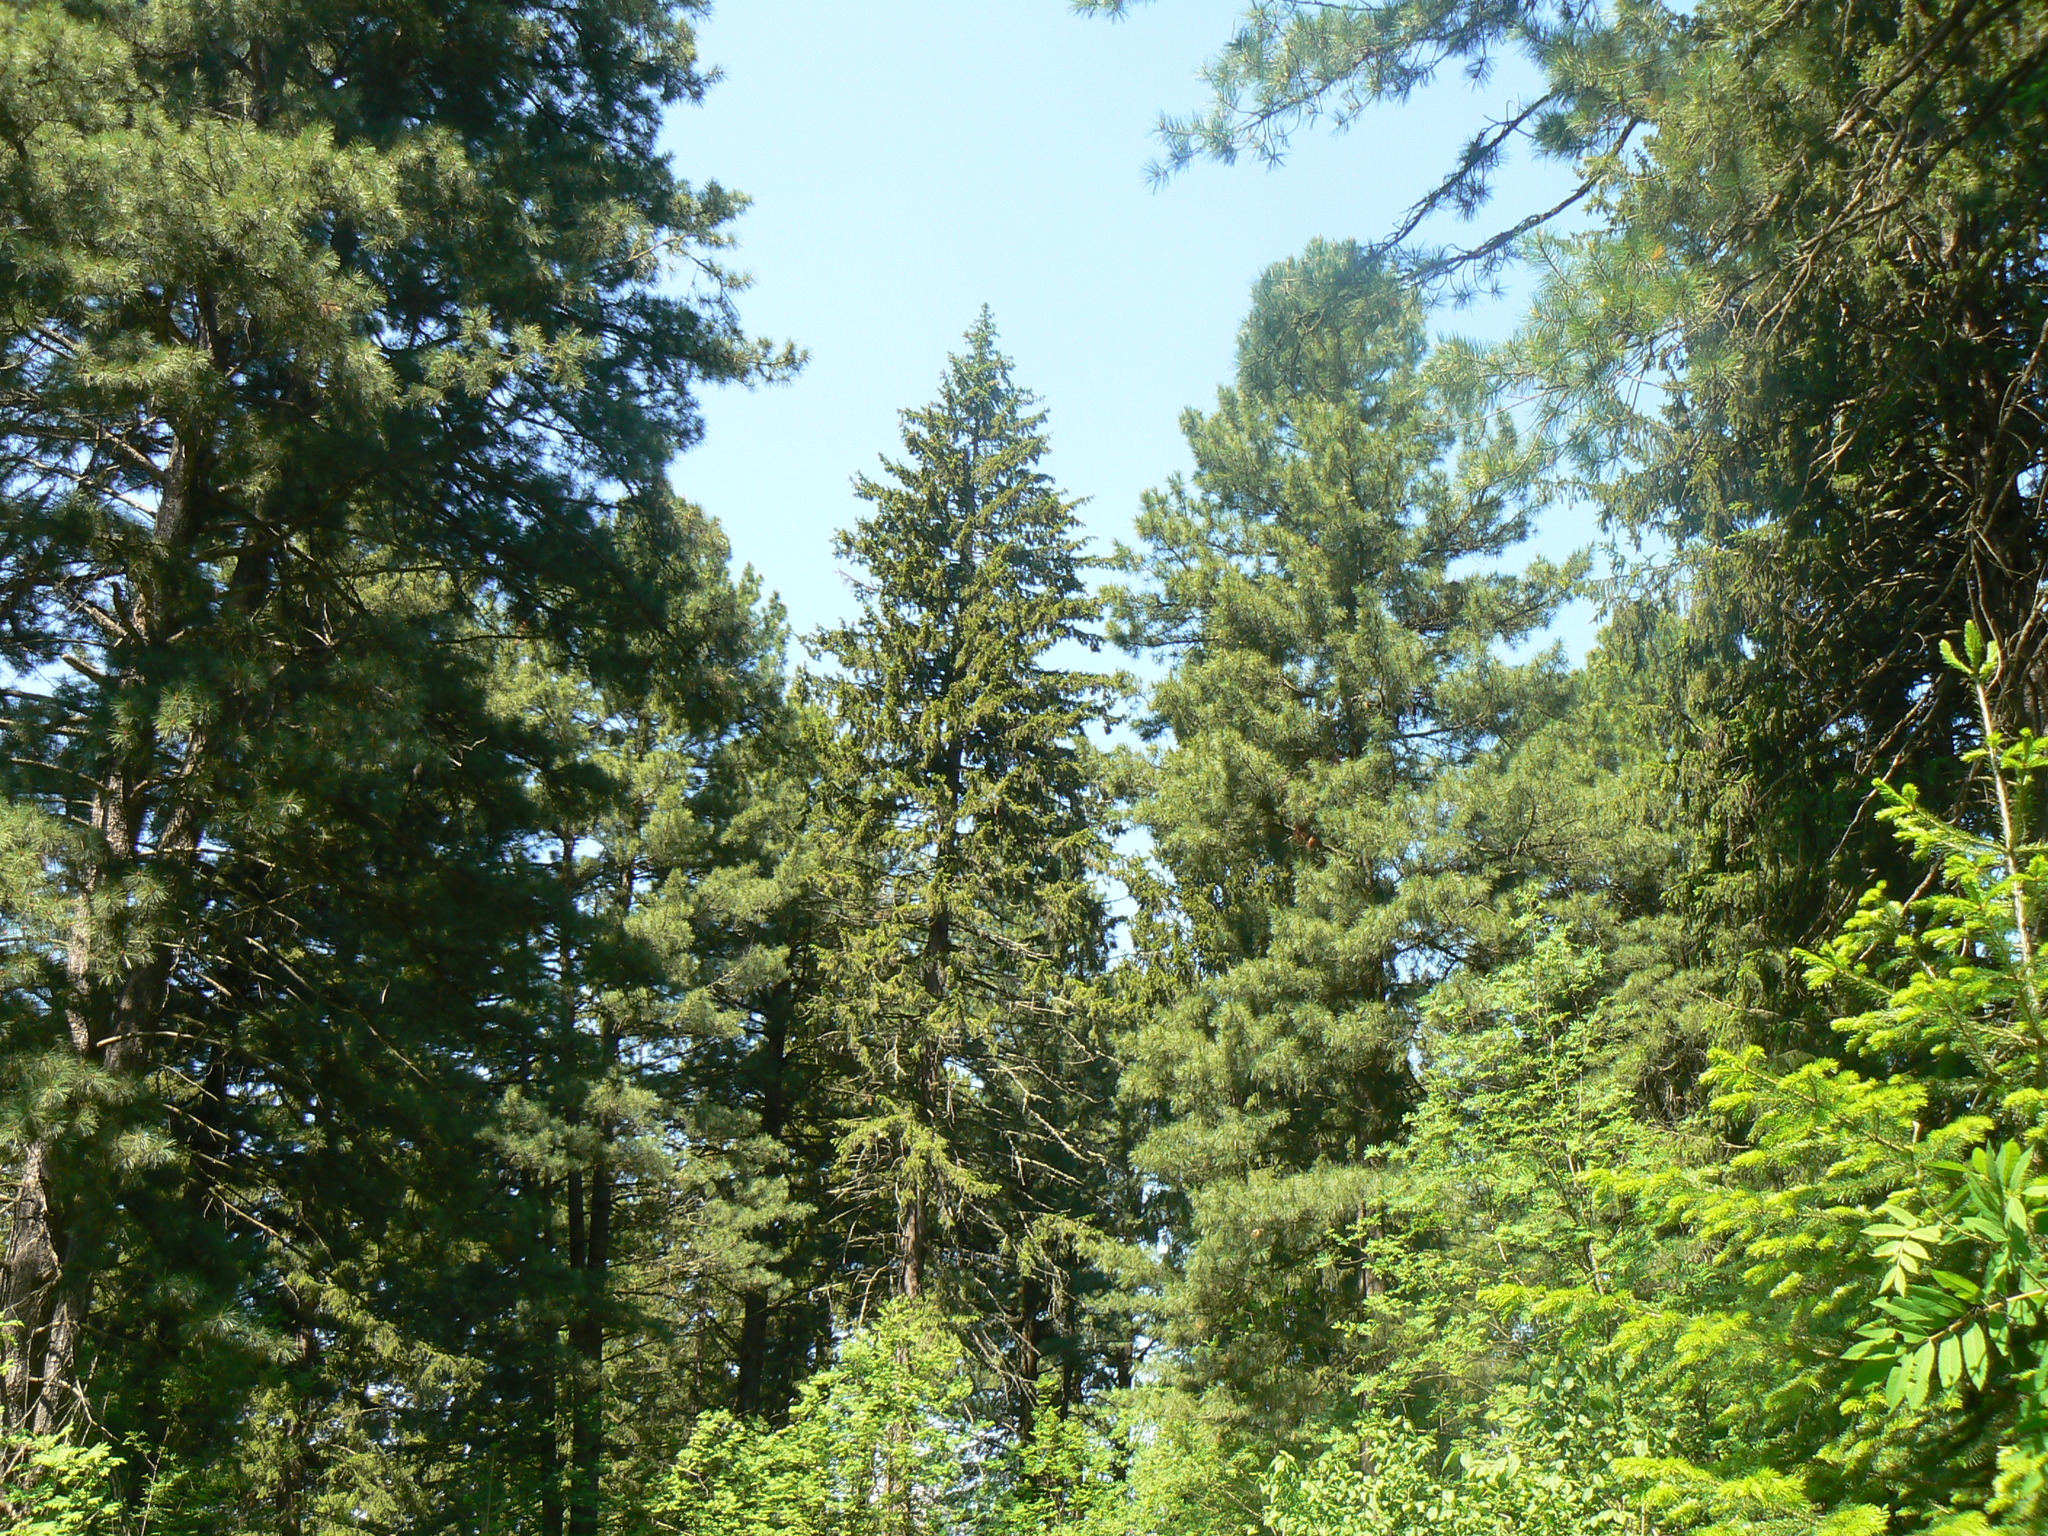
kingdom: Plantae
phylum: Tracheophyta
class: Pinopsida
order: Pinales
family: Pinaceae
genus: Pinus
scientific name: Pinus sibirica
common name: Siberian pine
